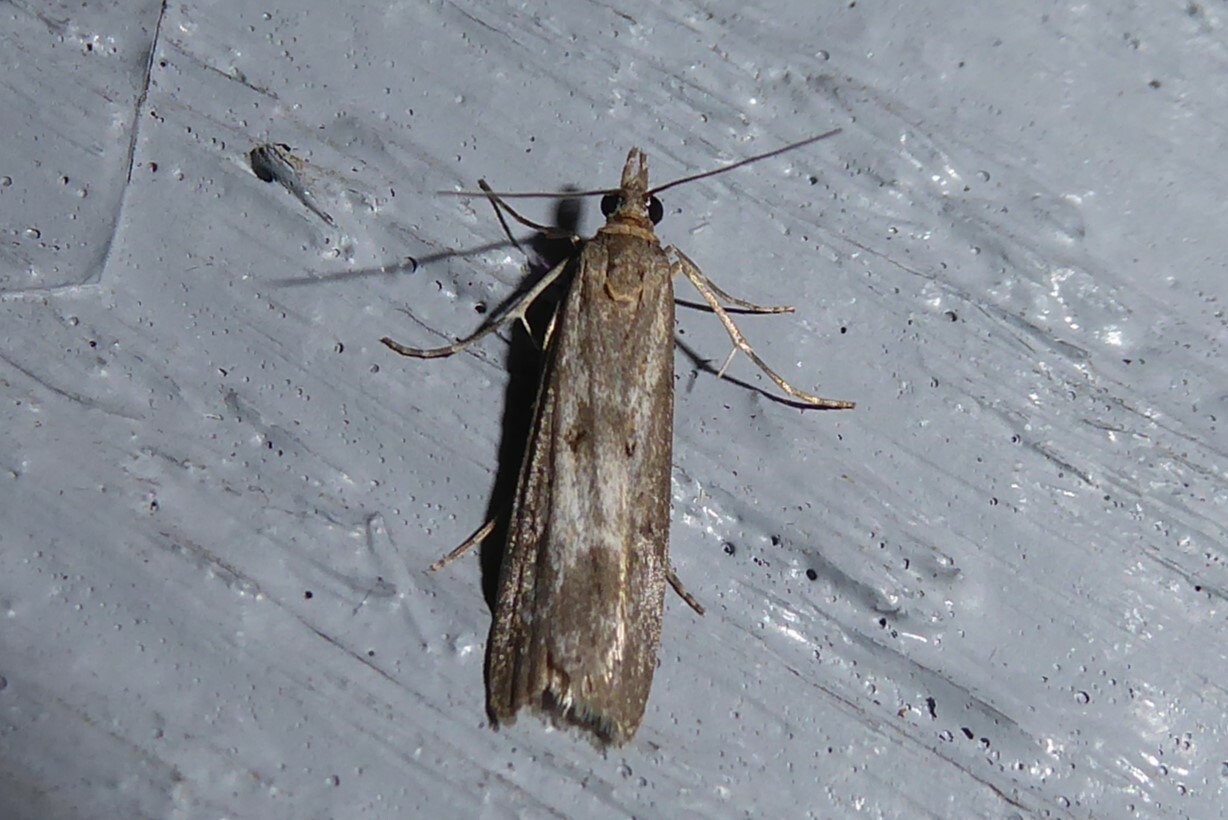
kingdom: Animalia
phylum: Arthropoda
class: Insecta
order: Lepidoptera
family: Crambidae
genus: Eudonia
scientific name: Eudonia leptalea
